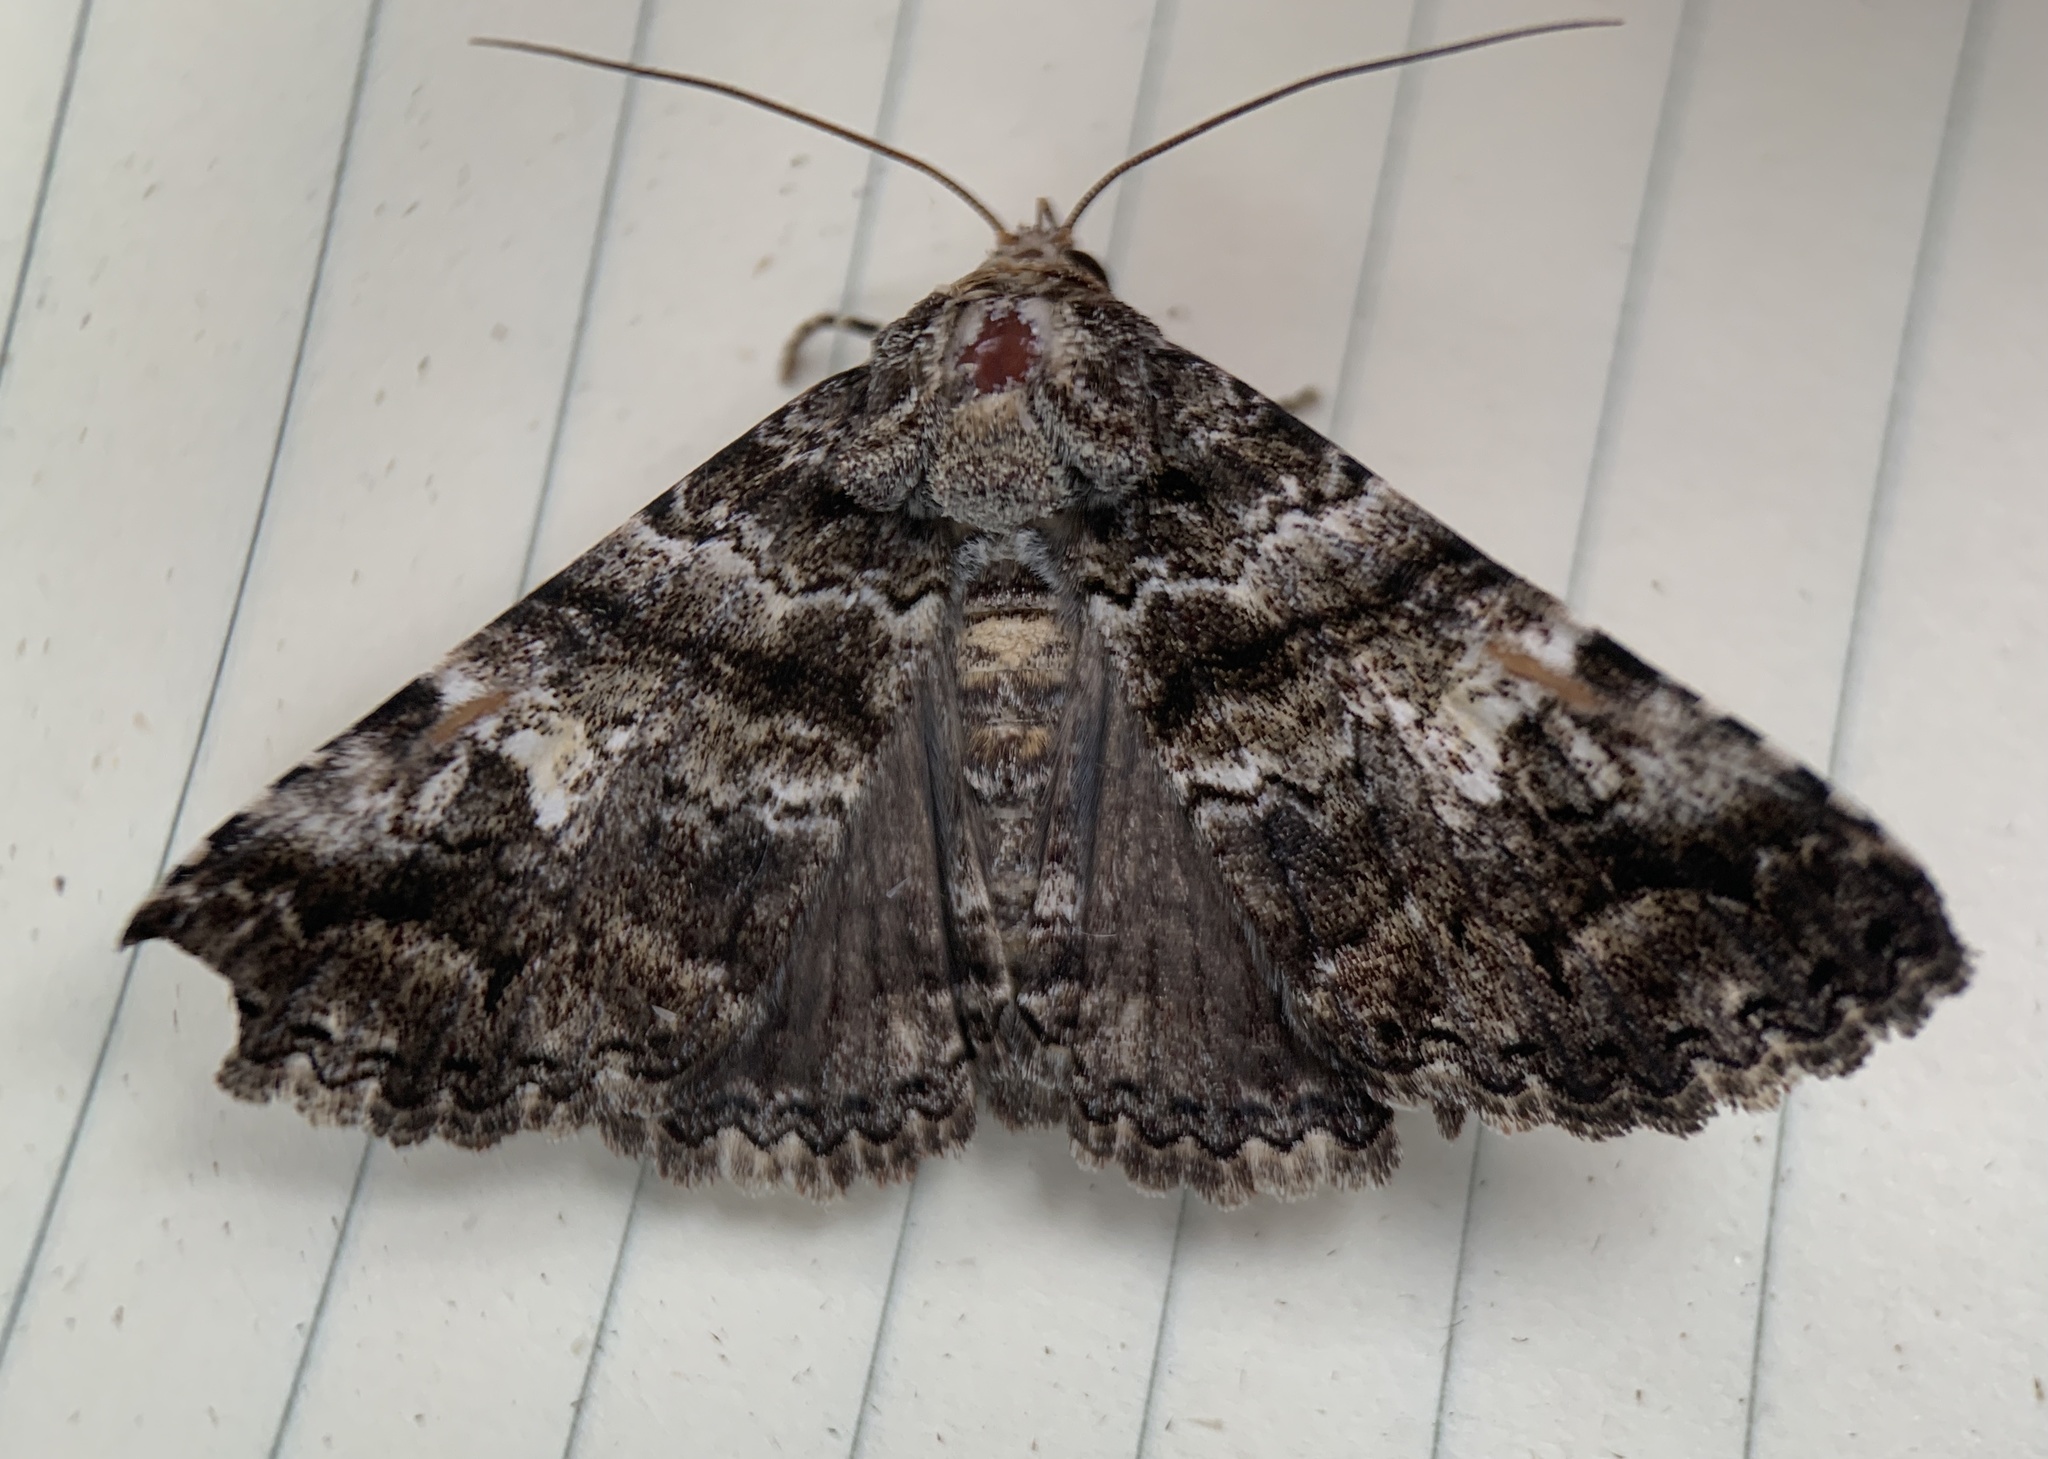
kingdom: Animalia
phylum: Arthropoda
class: Insecta
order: Lepidoptera
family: Erebidae
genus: Metria
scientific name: Metria amella
